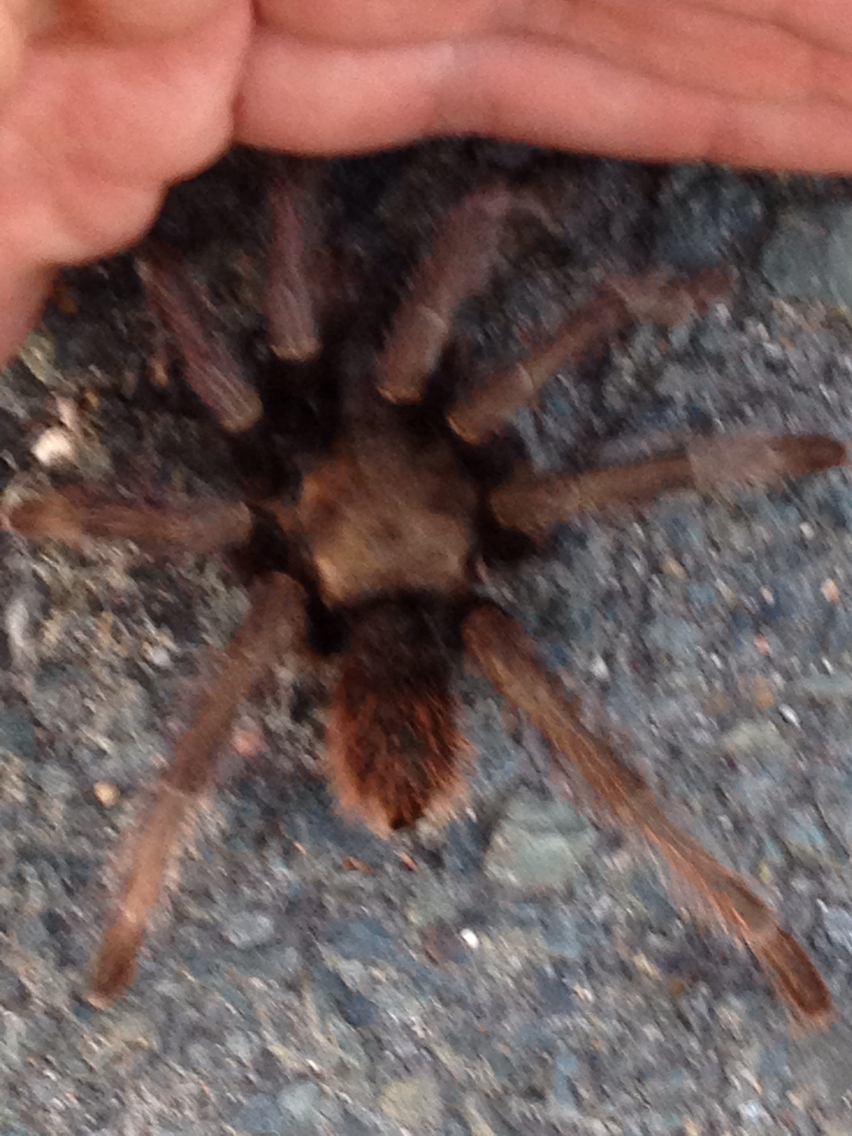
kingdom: Animalia
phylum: Arthropoda
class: Arachnida
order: Araneae
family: Theraphosidae
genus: Aphonopelma
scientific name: Aphonopelma iodius
